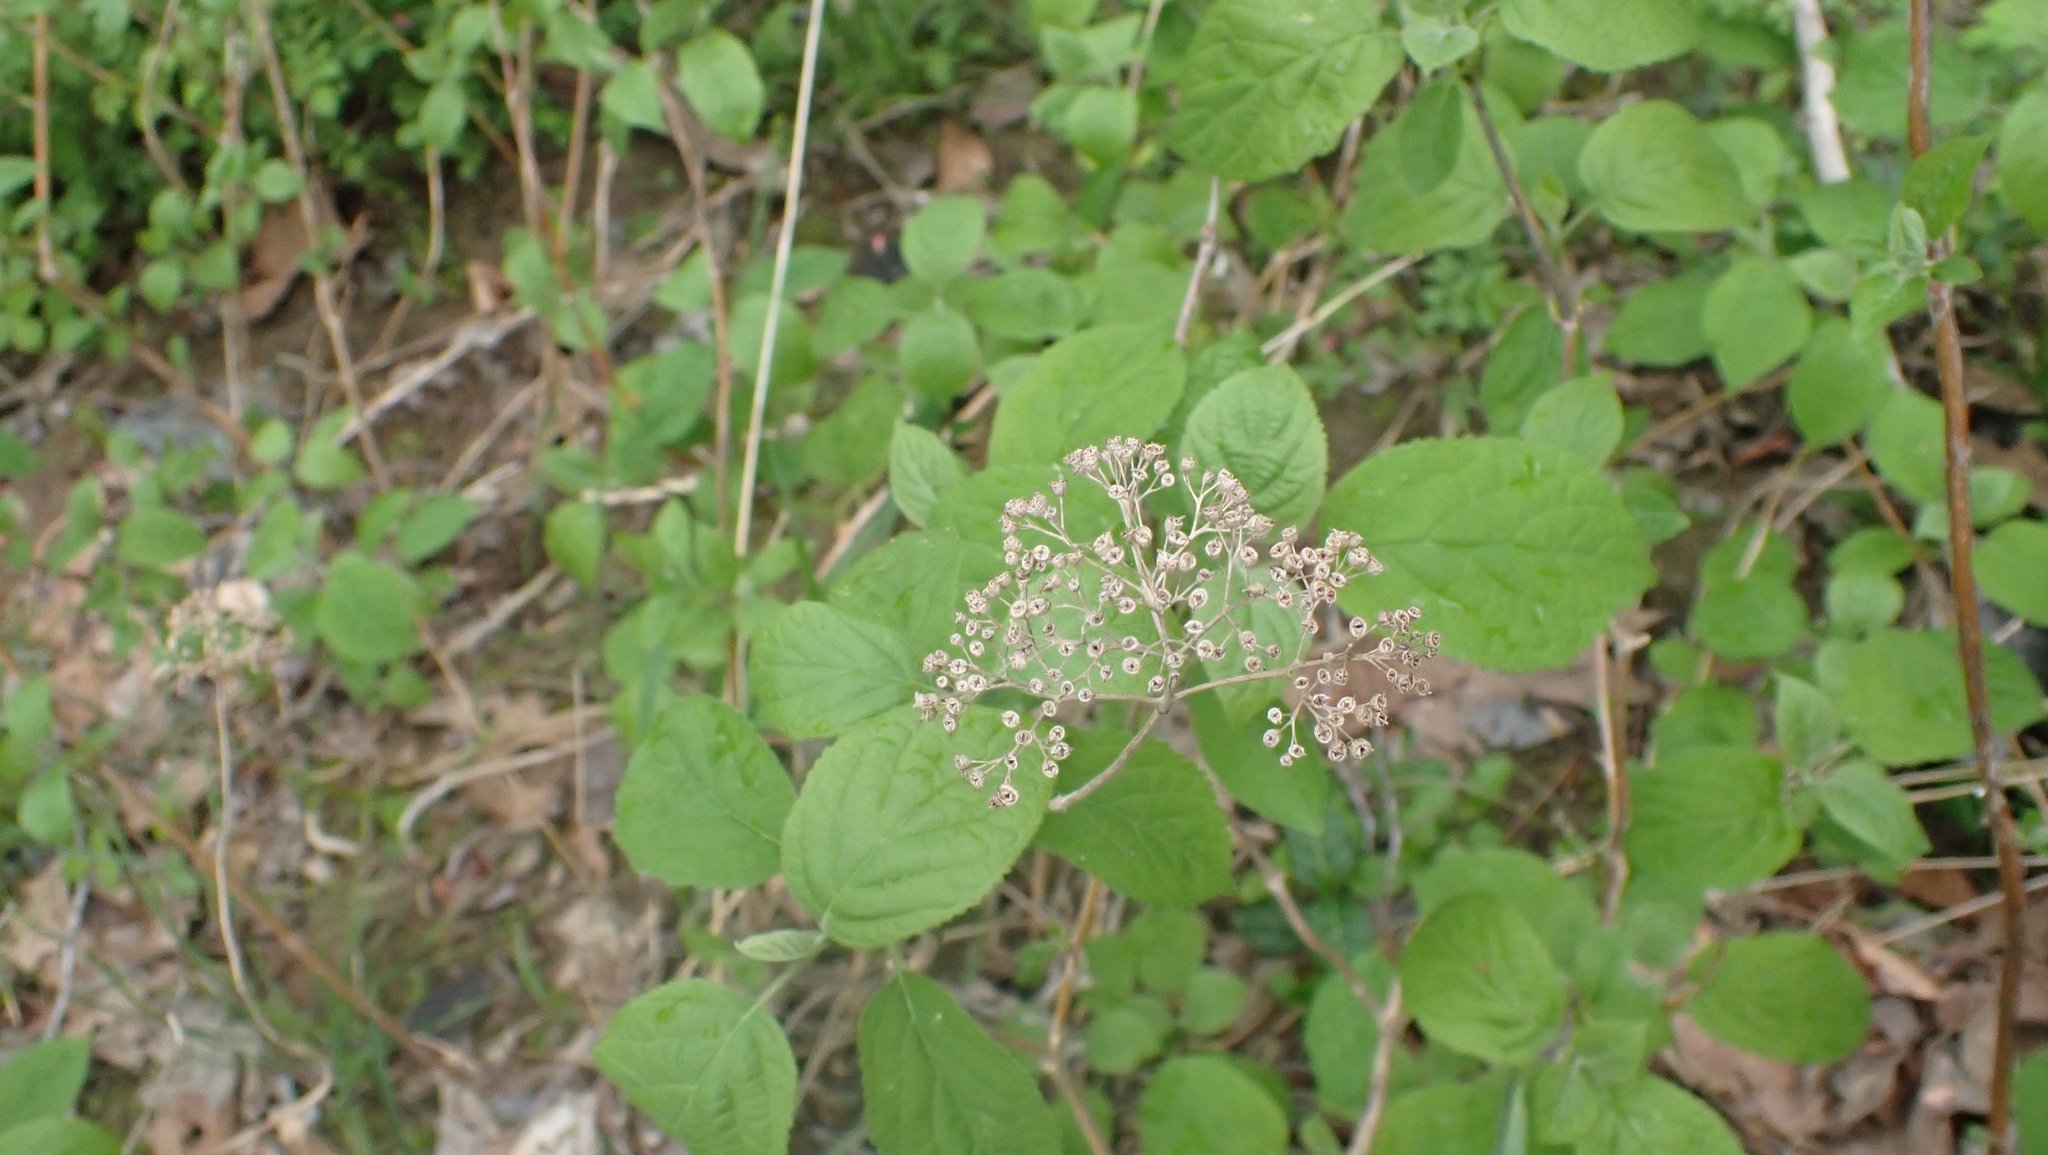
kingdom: Plantae
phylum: Tracheophyta
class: Magnoliopsida
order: Cornales
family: Hydrangeaceae
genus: Hydrangea
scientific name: Hydrangea arborescens
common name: Sevenbark
